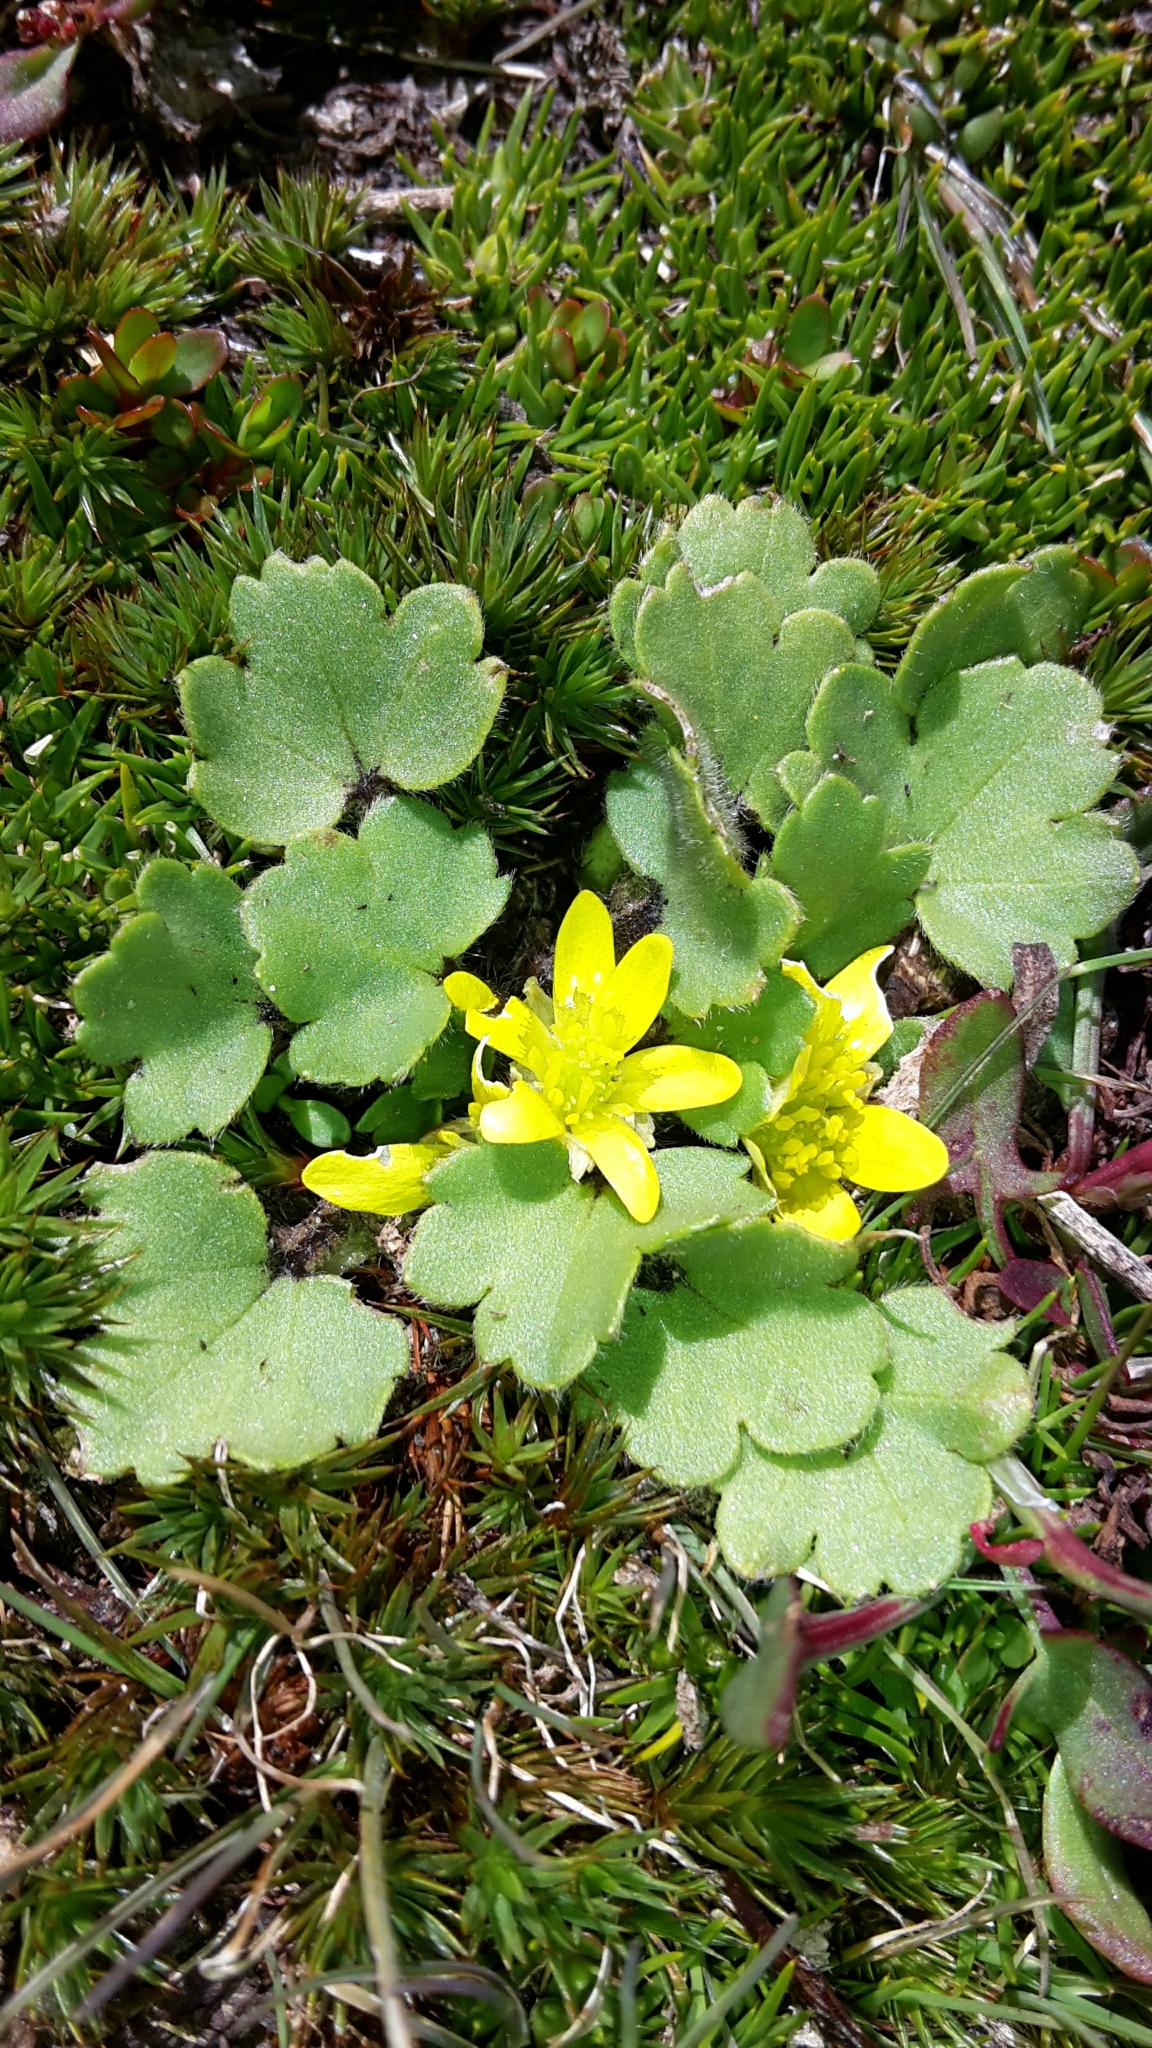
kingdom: Plantae
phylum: Tracheophyta
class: Magnoliopsida
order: Ranunculales
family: Ranunculaceae
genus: Ranunculus
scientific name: Ranunculus royi
